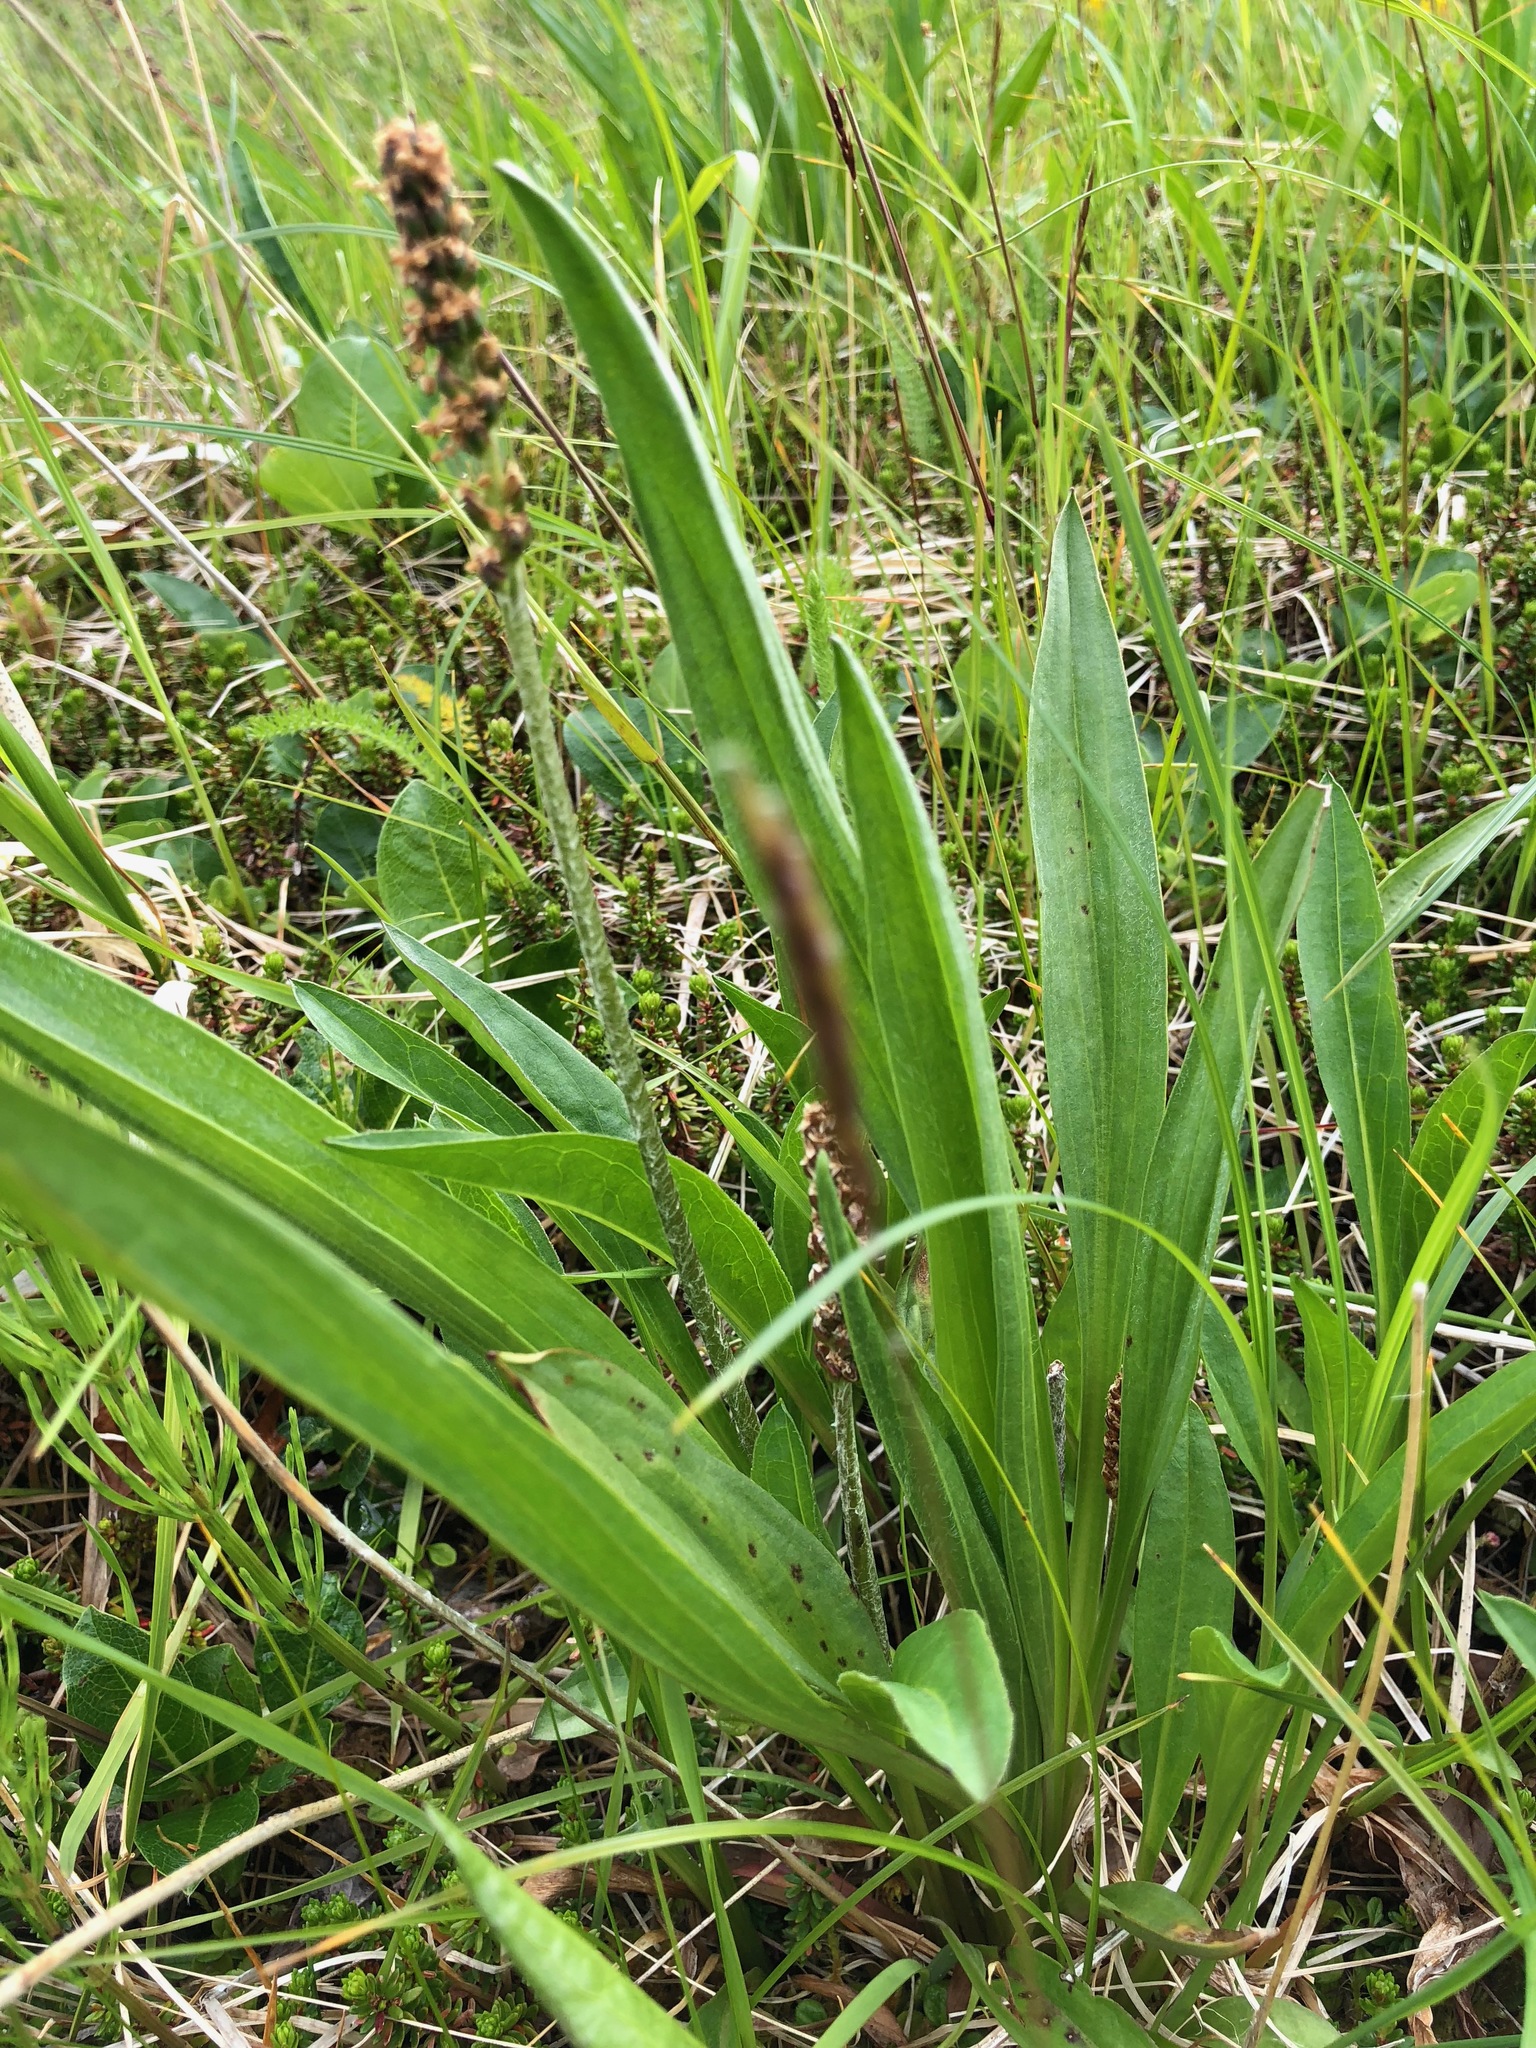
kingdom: Plantae
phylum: Tracheophyta
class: Magnoliopsida
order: Lamiales
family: Plantaginaceae
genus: Plantago
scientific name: Plantago macrocarpa
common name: Alaska plantain
